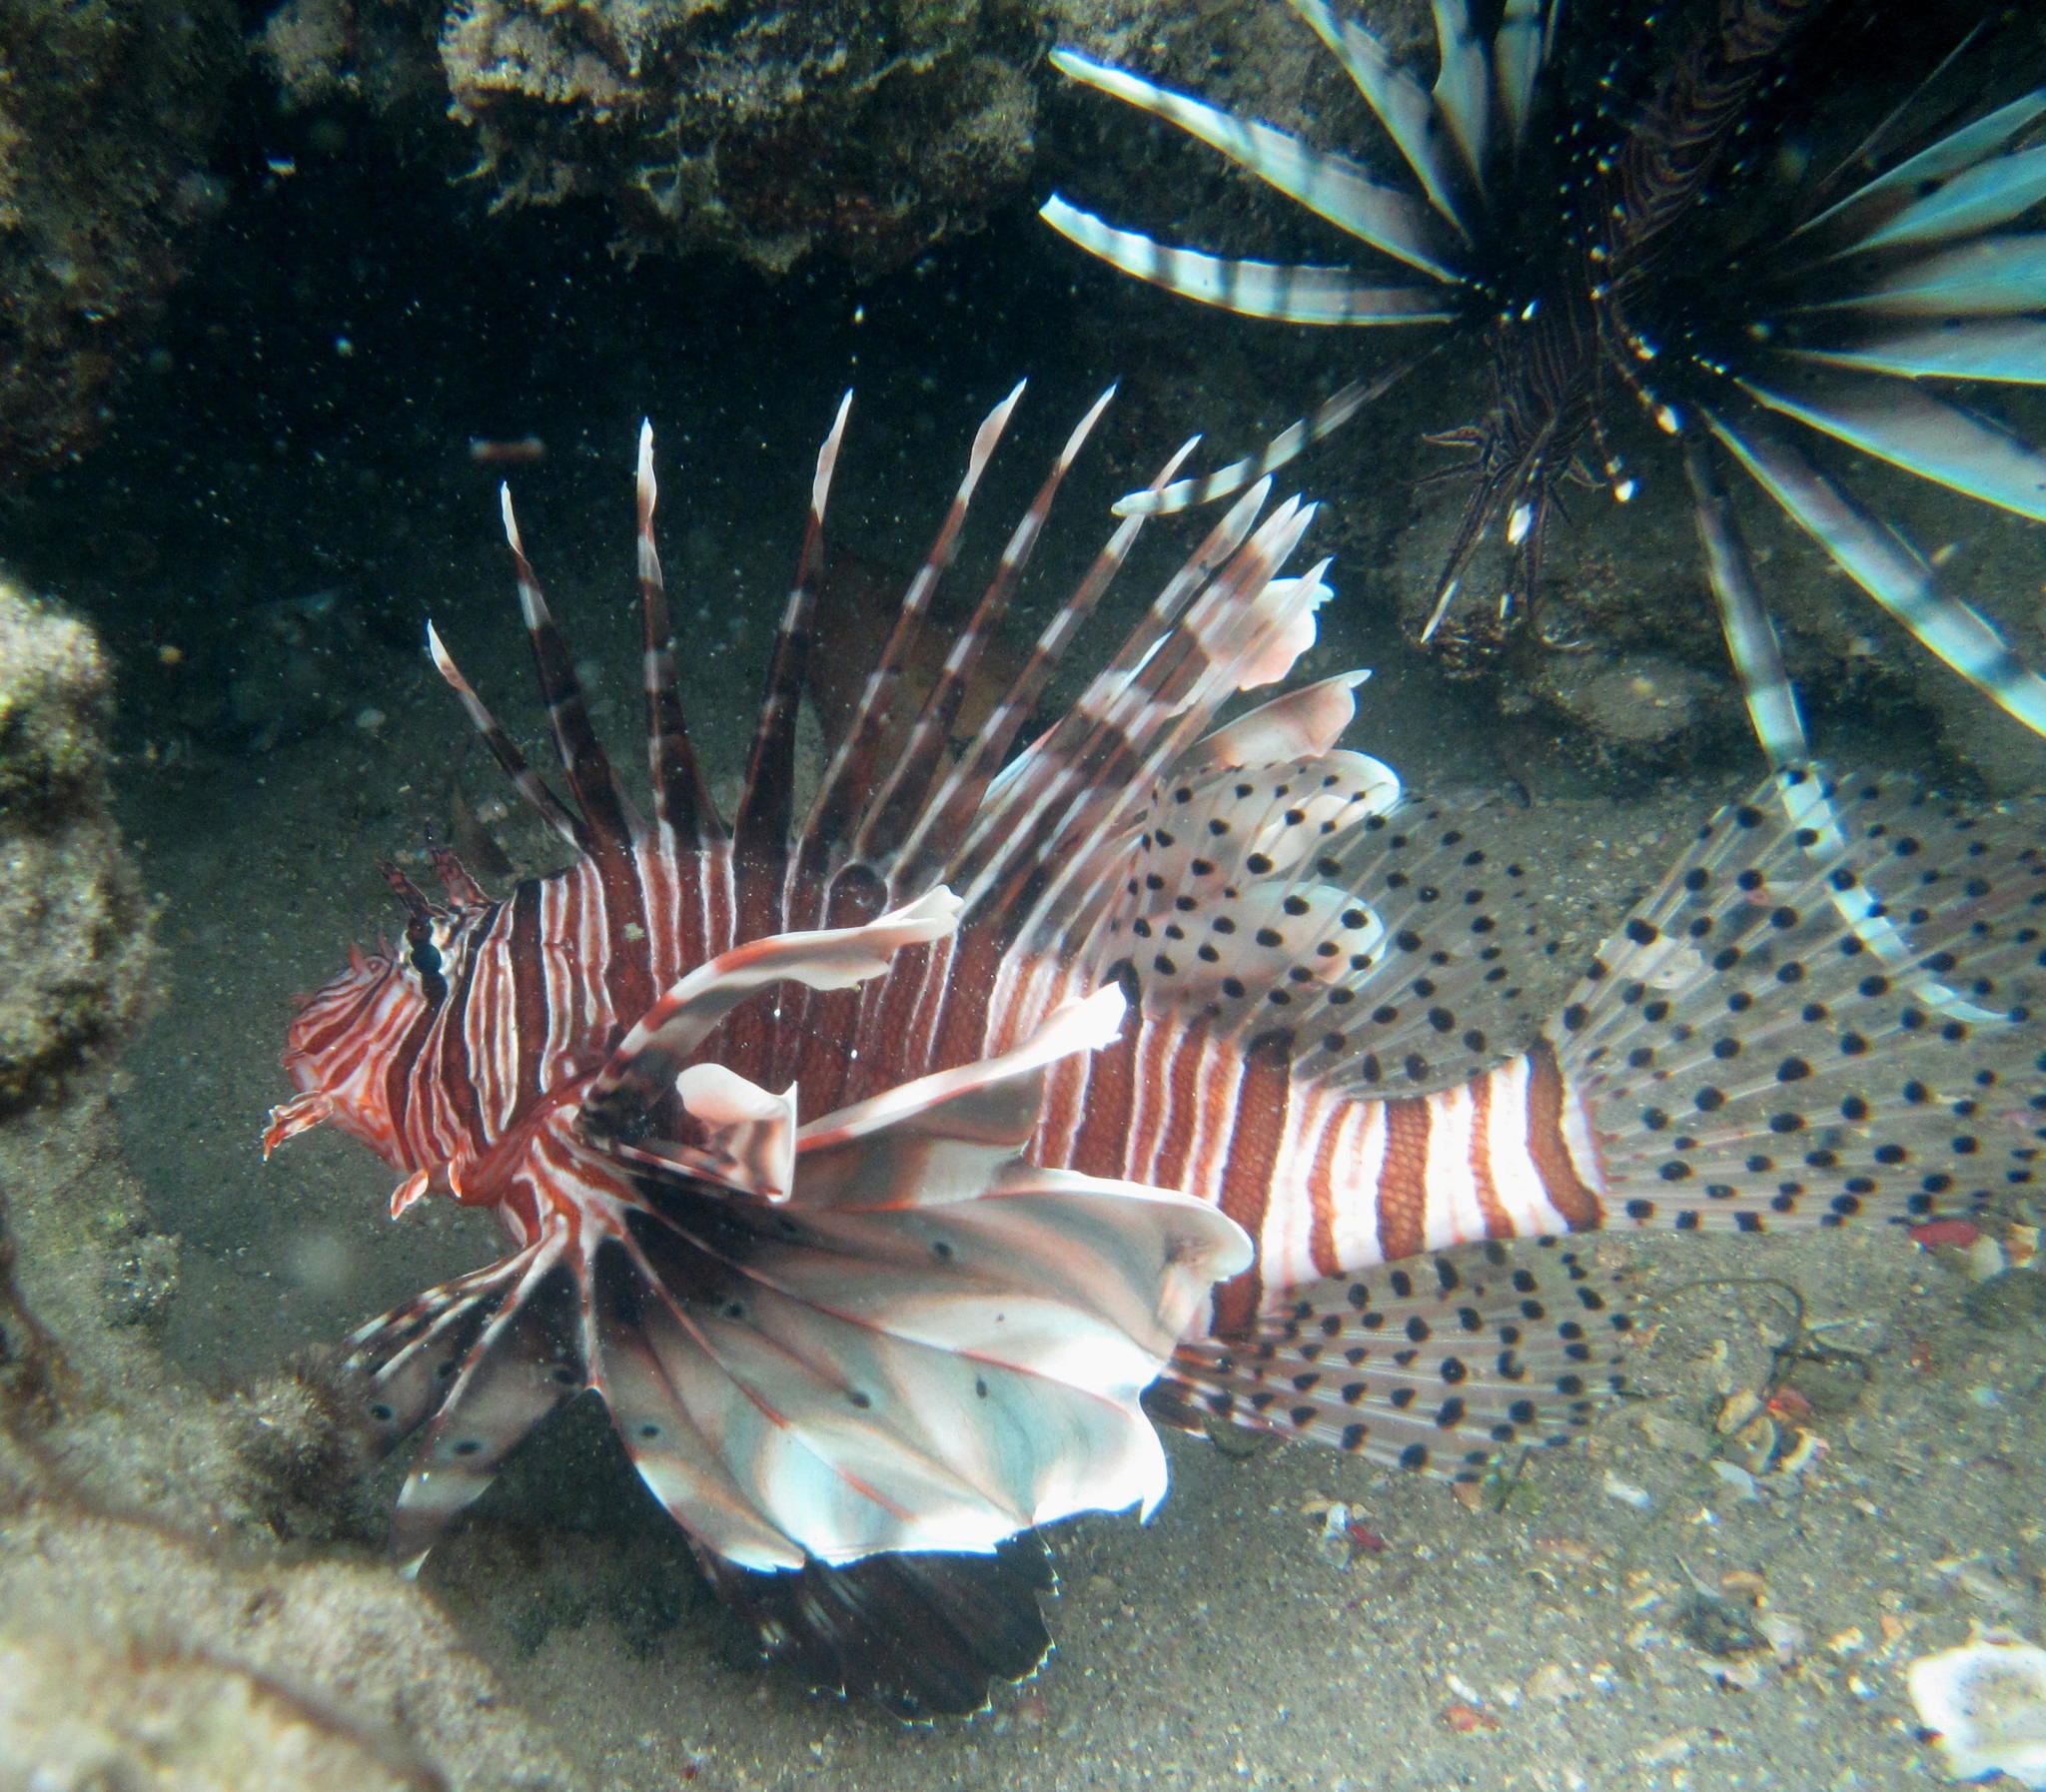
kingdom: Animalia
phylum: Chordata
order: Scorpaeniformes
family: Scorpaenidae
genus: Pterois
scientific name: Pterois miles
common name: Devil firefish
